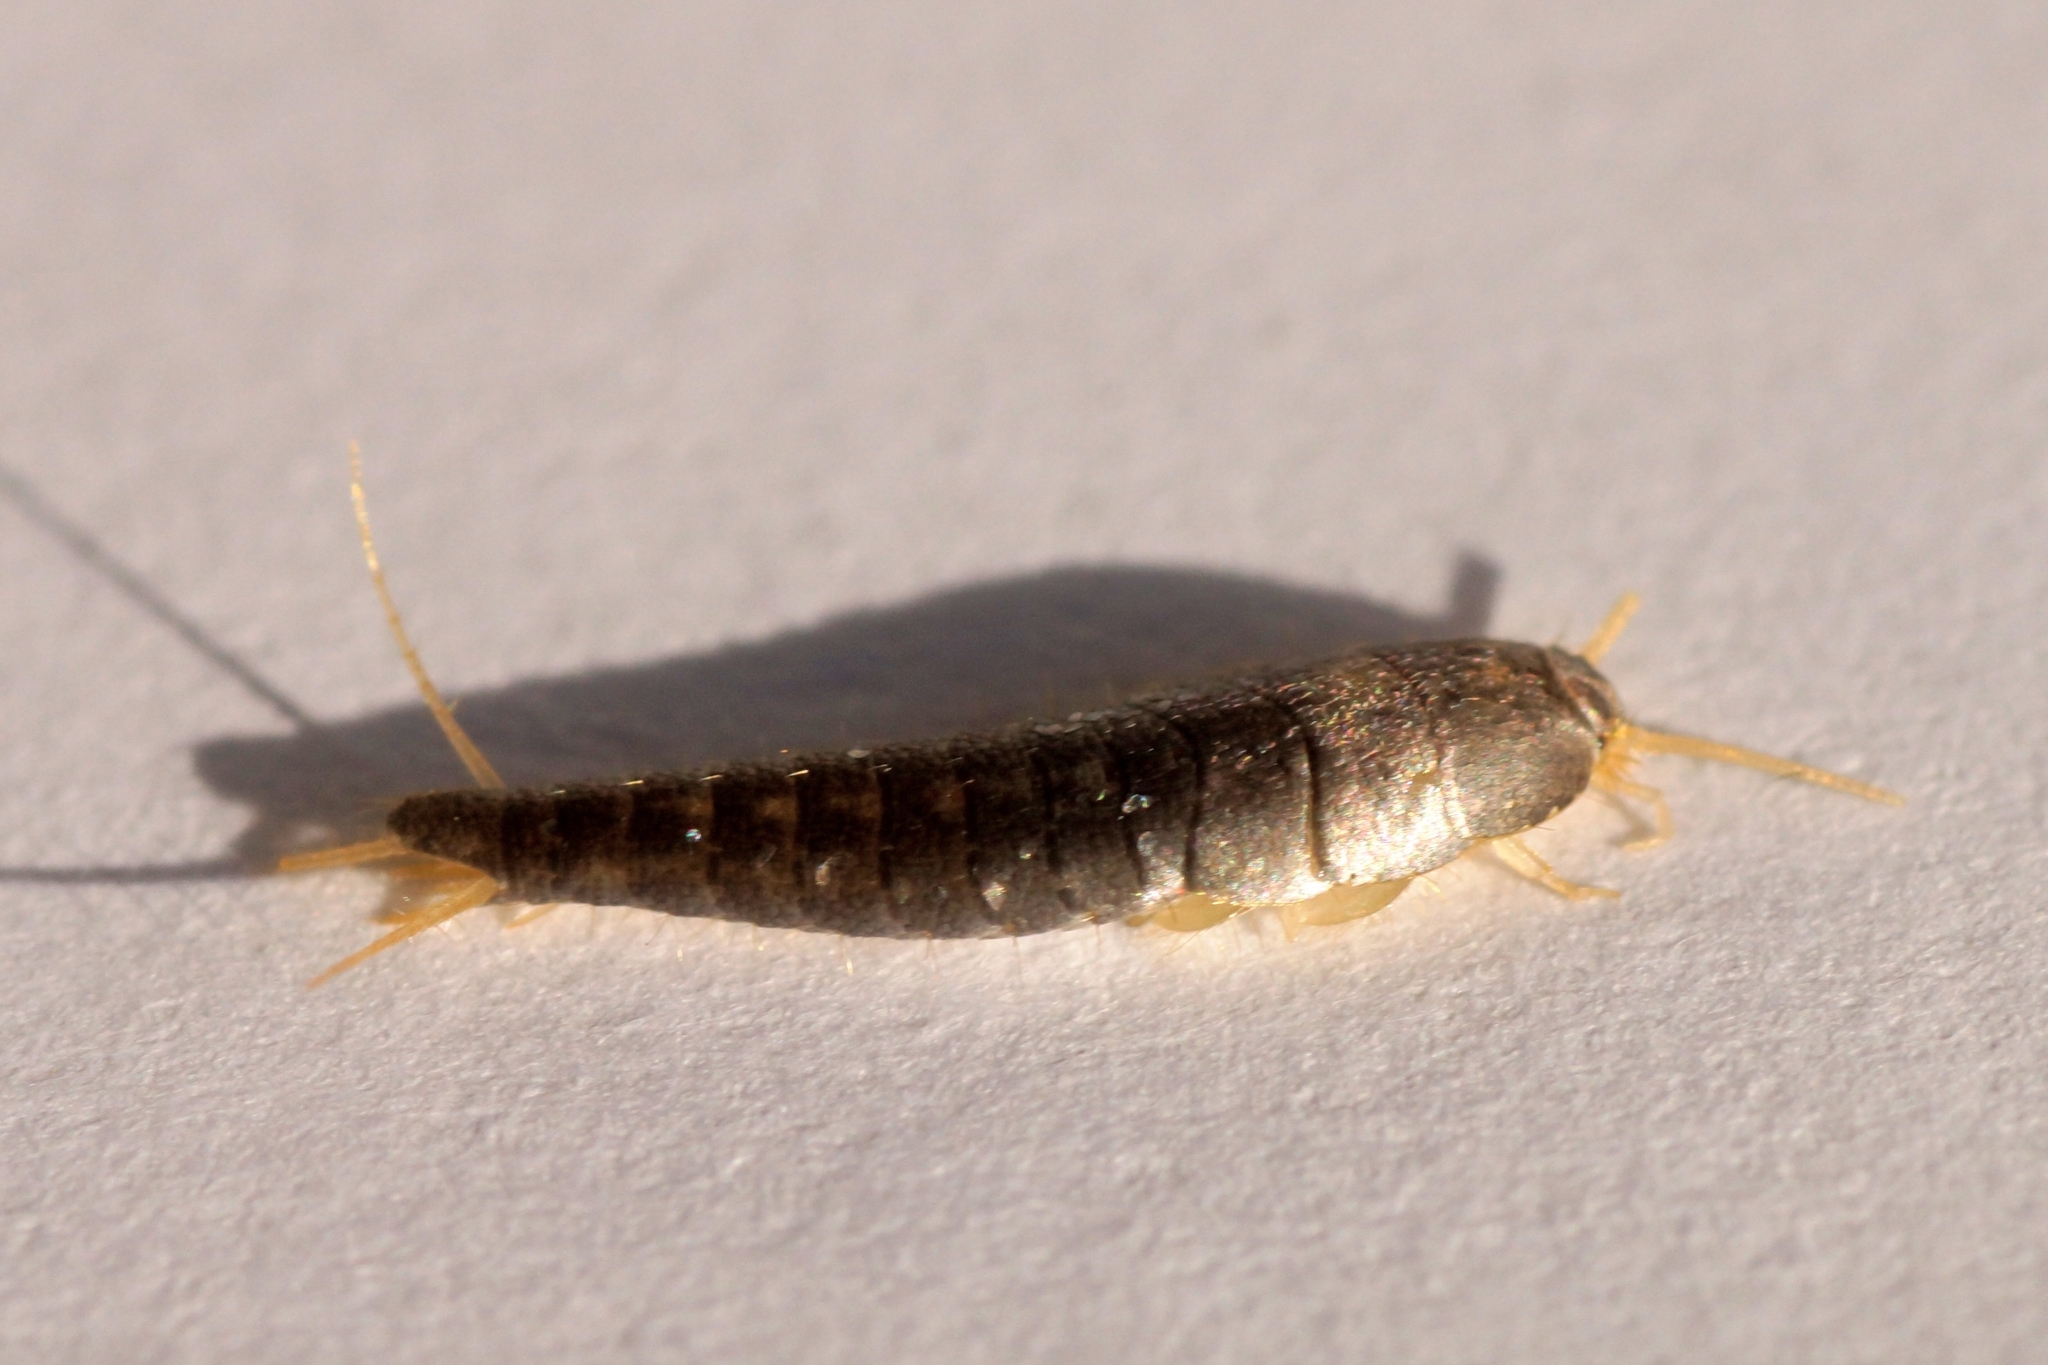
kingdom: Animalia
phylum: Arthropoda
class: Insecta
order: Zygentoma
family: Lepismatidae
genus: Lepisma
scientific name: Lepisma saccharinum
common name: Silverfish
